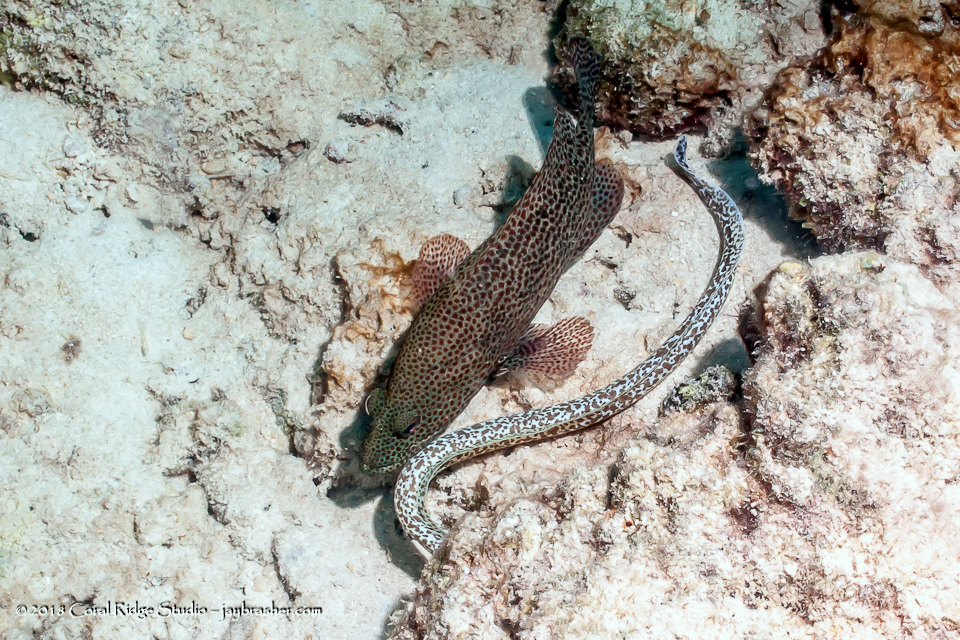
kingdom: Animalia
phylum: Chordata
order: Perciformes
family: Serranidae
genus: Cephalopholis
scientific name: Cephalopholis cruentata
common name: Graysby
